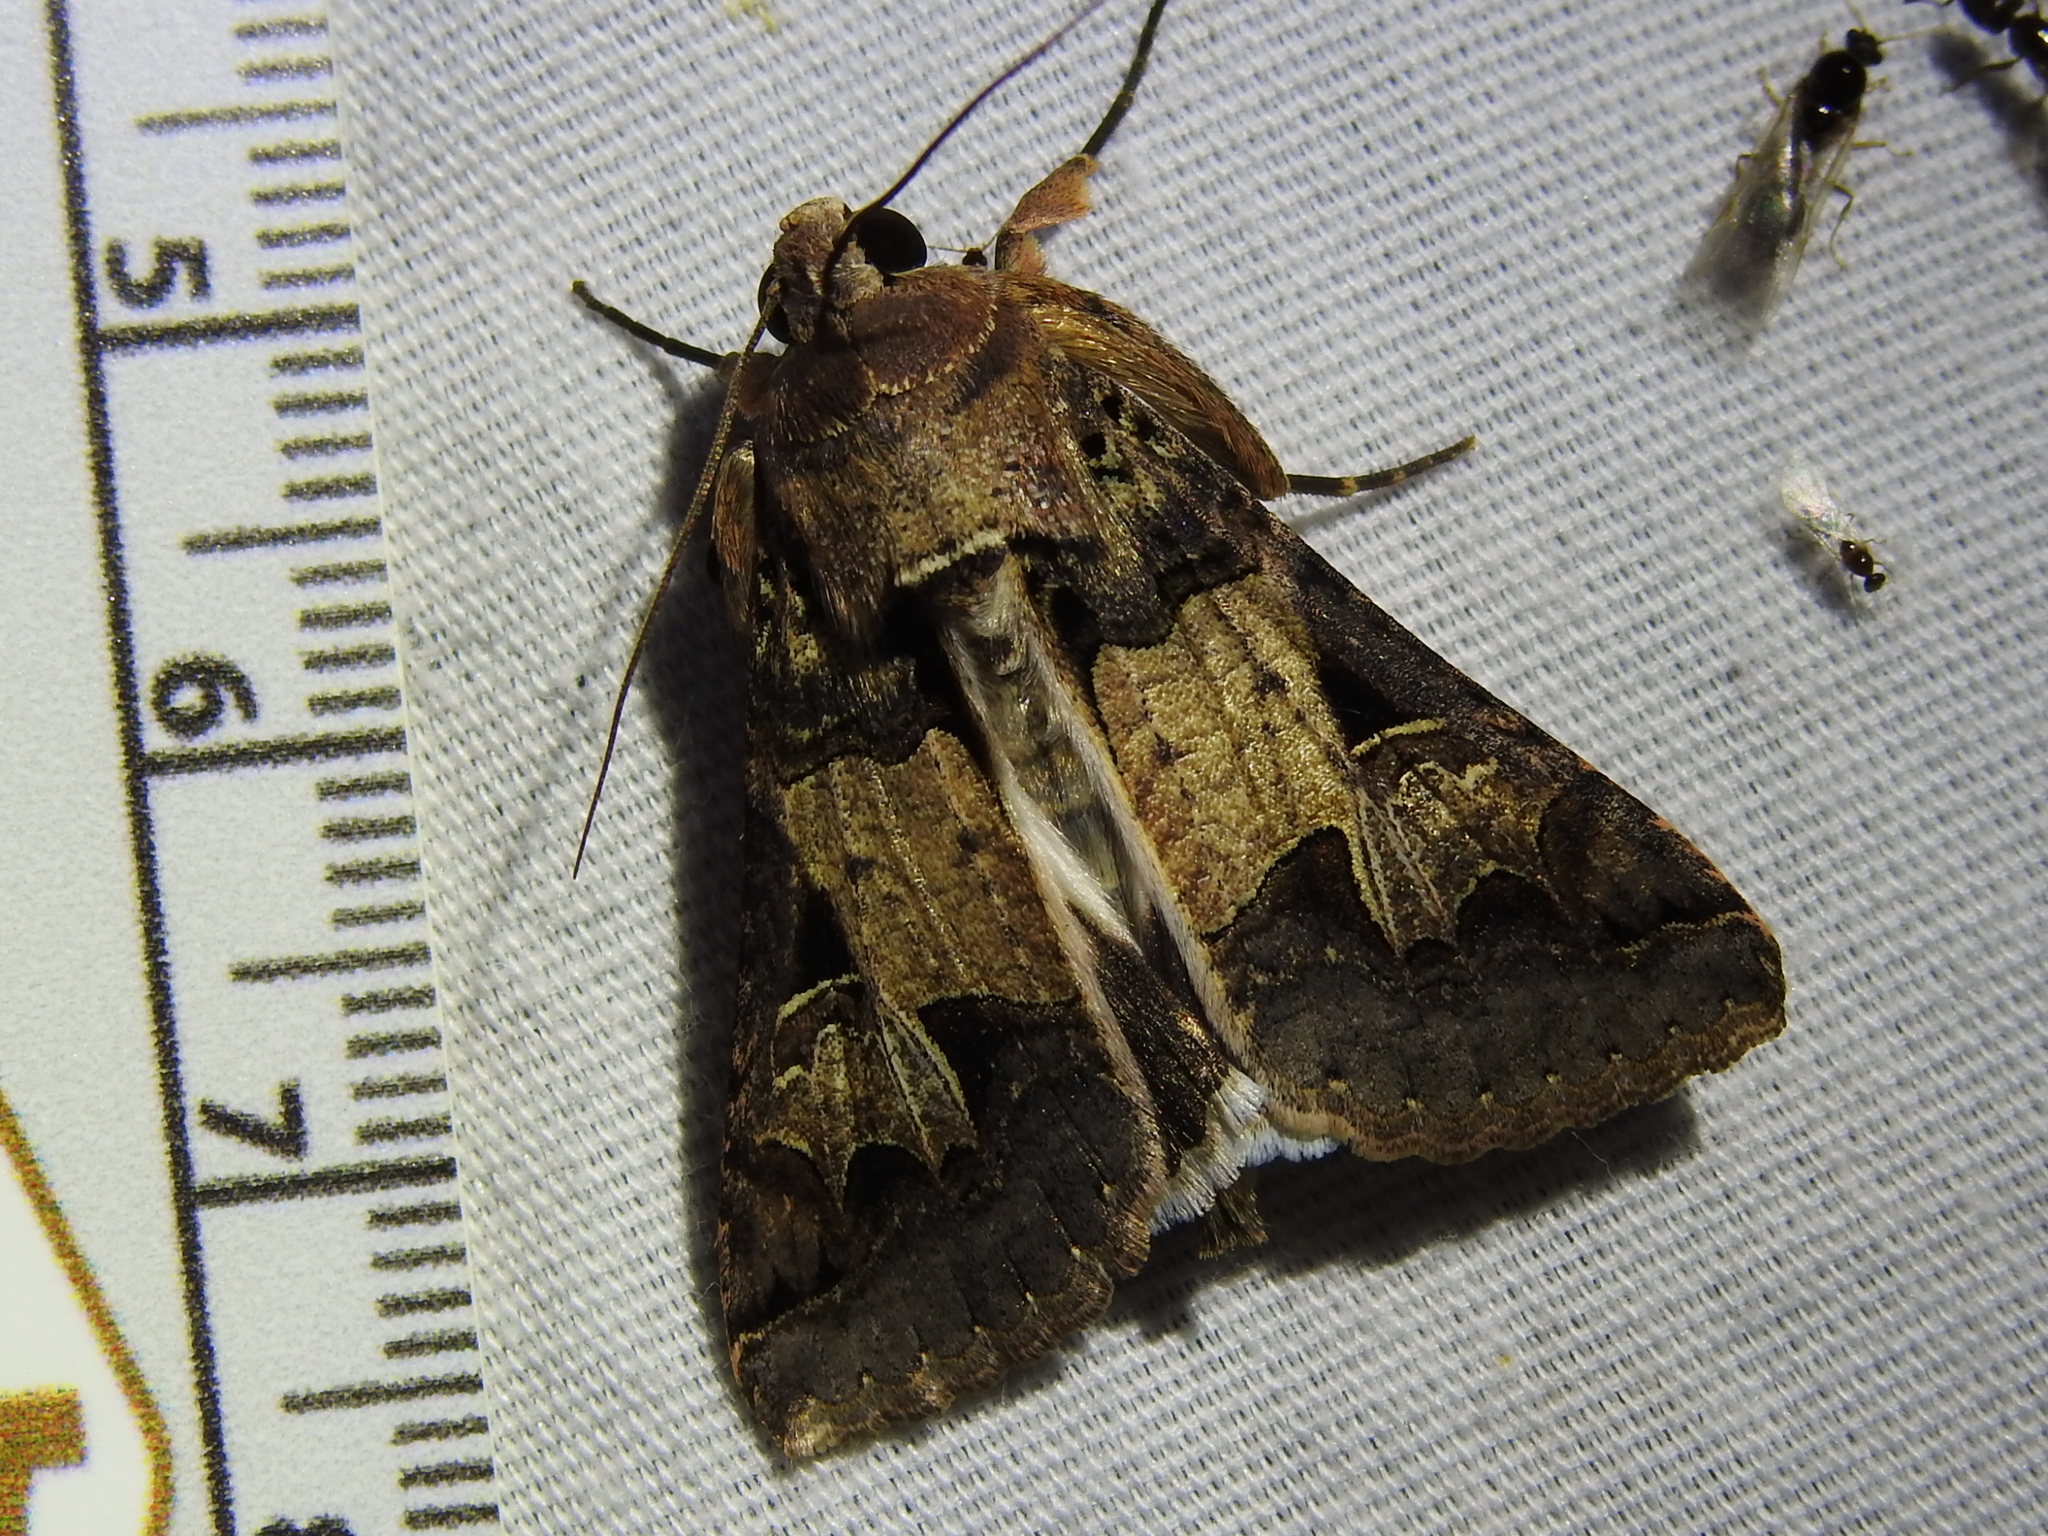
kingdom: Animalia
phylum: Arthropoda
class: Insecta
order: Lepidoptera
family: Erebidae
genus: Melipotis
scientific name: Melipotis agrotoides
